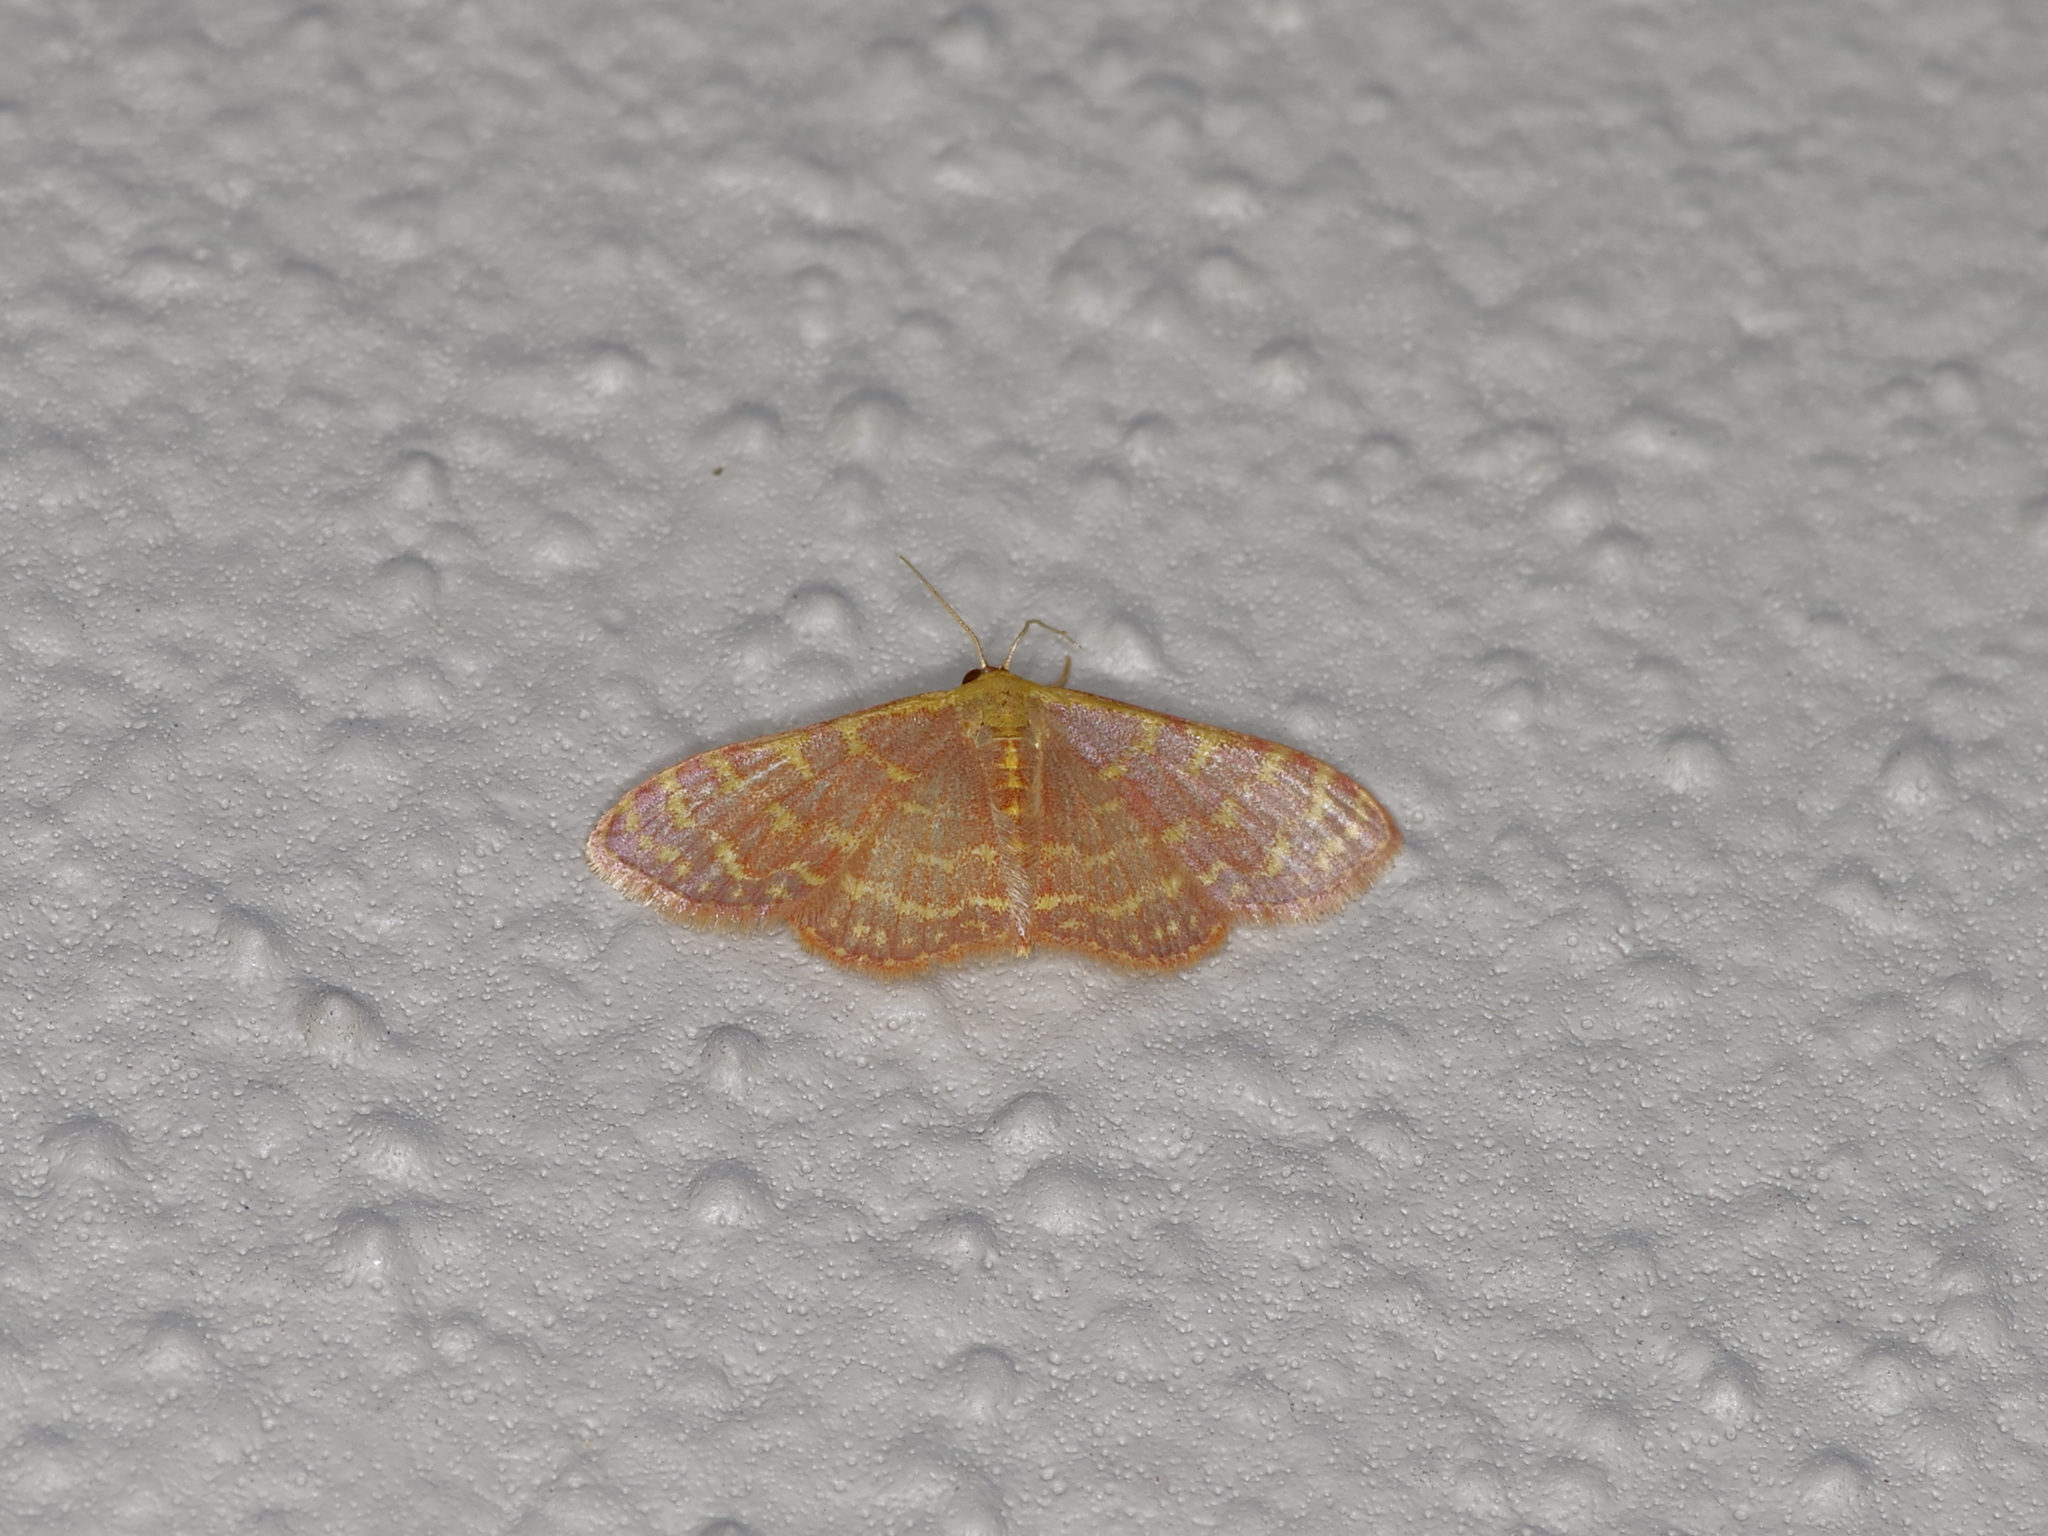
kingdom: Animalia
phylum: Arthropoda
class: Insecta
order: Lepidoptera
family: Geometridae
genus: Leptostales
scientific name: Leptostales pannaria
